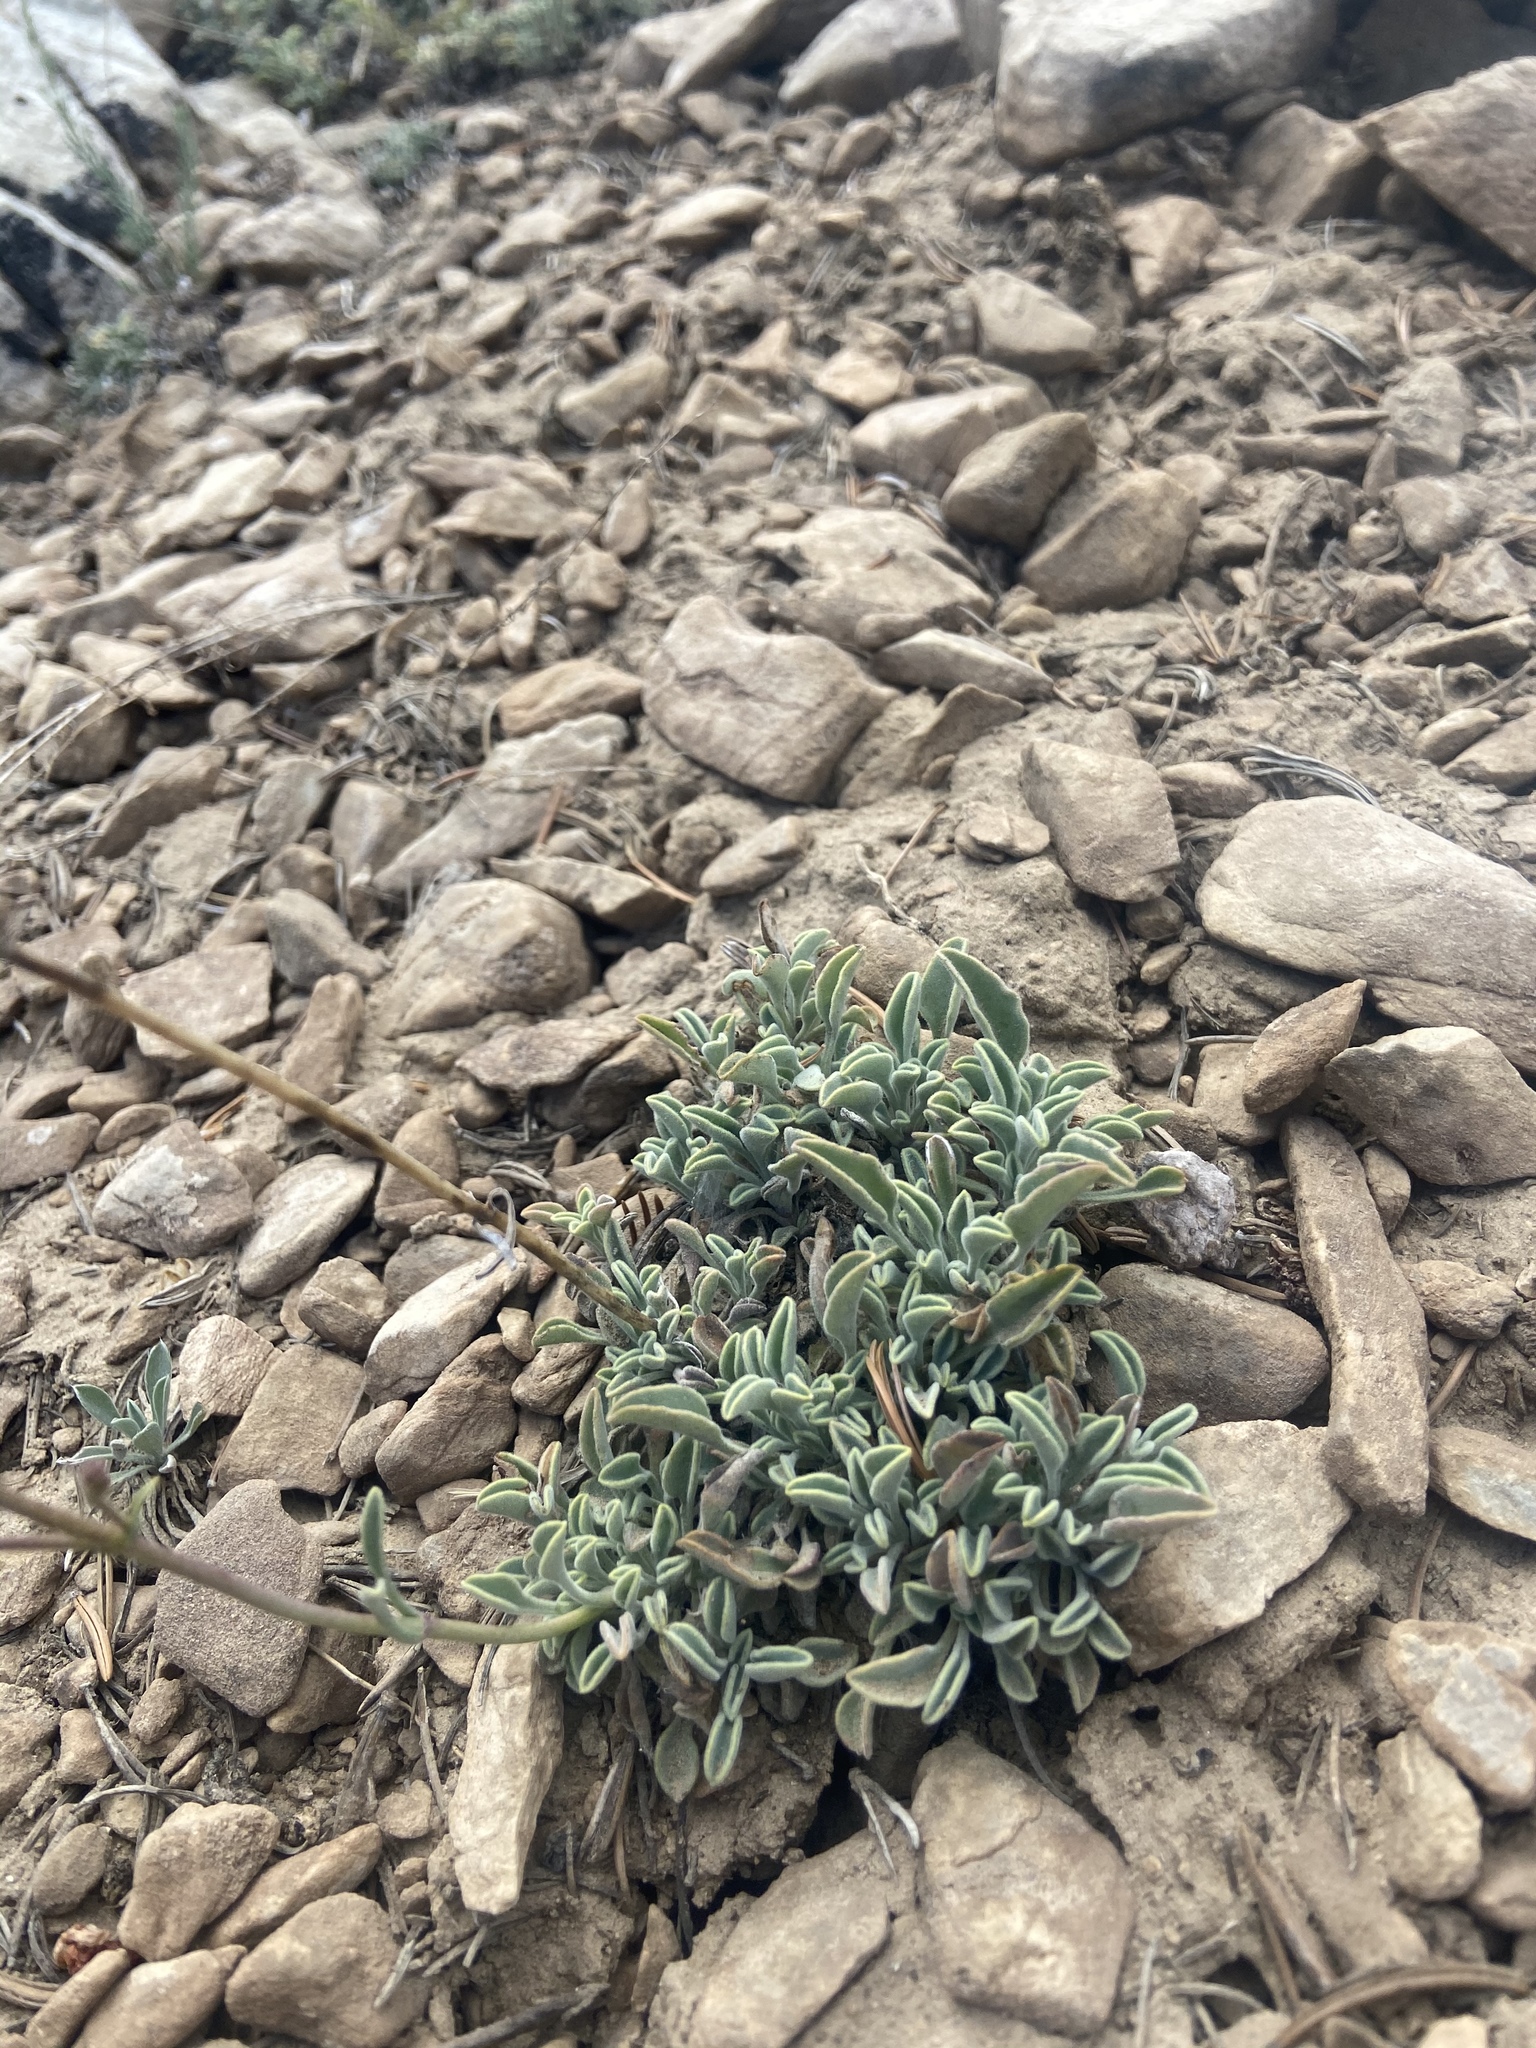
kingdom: Plantae
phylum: Tracheophyta
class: Magnoliopsida
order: Lamiales
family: Plantaginaceae
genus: Penstemon
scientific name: Penstemon scapoides
